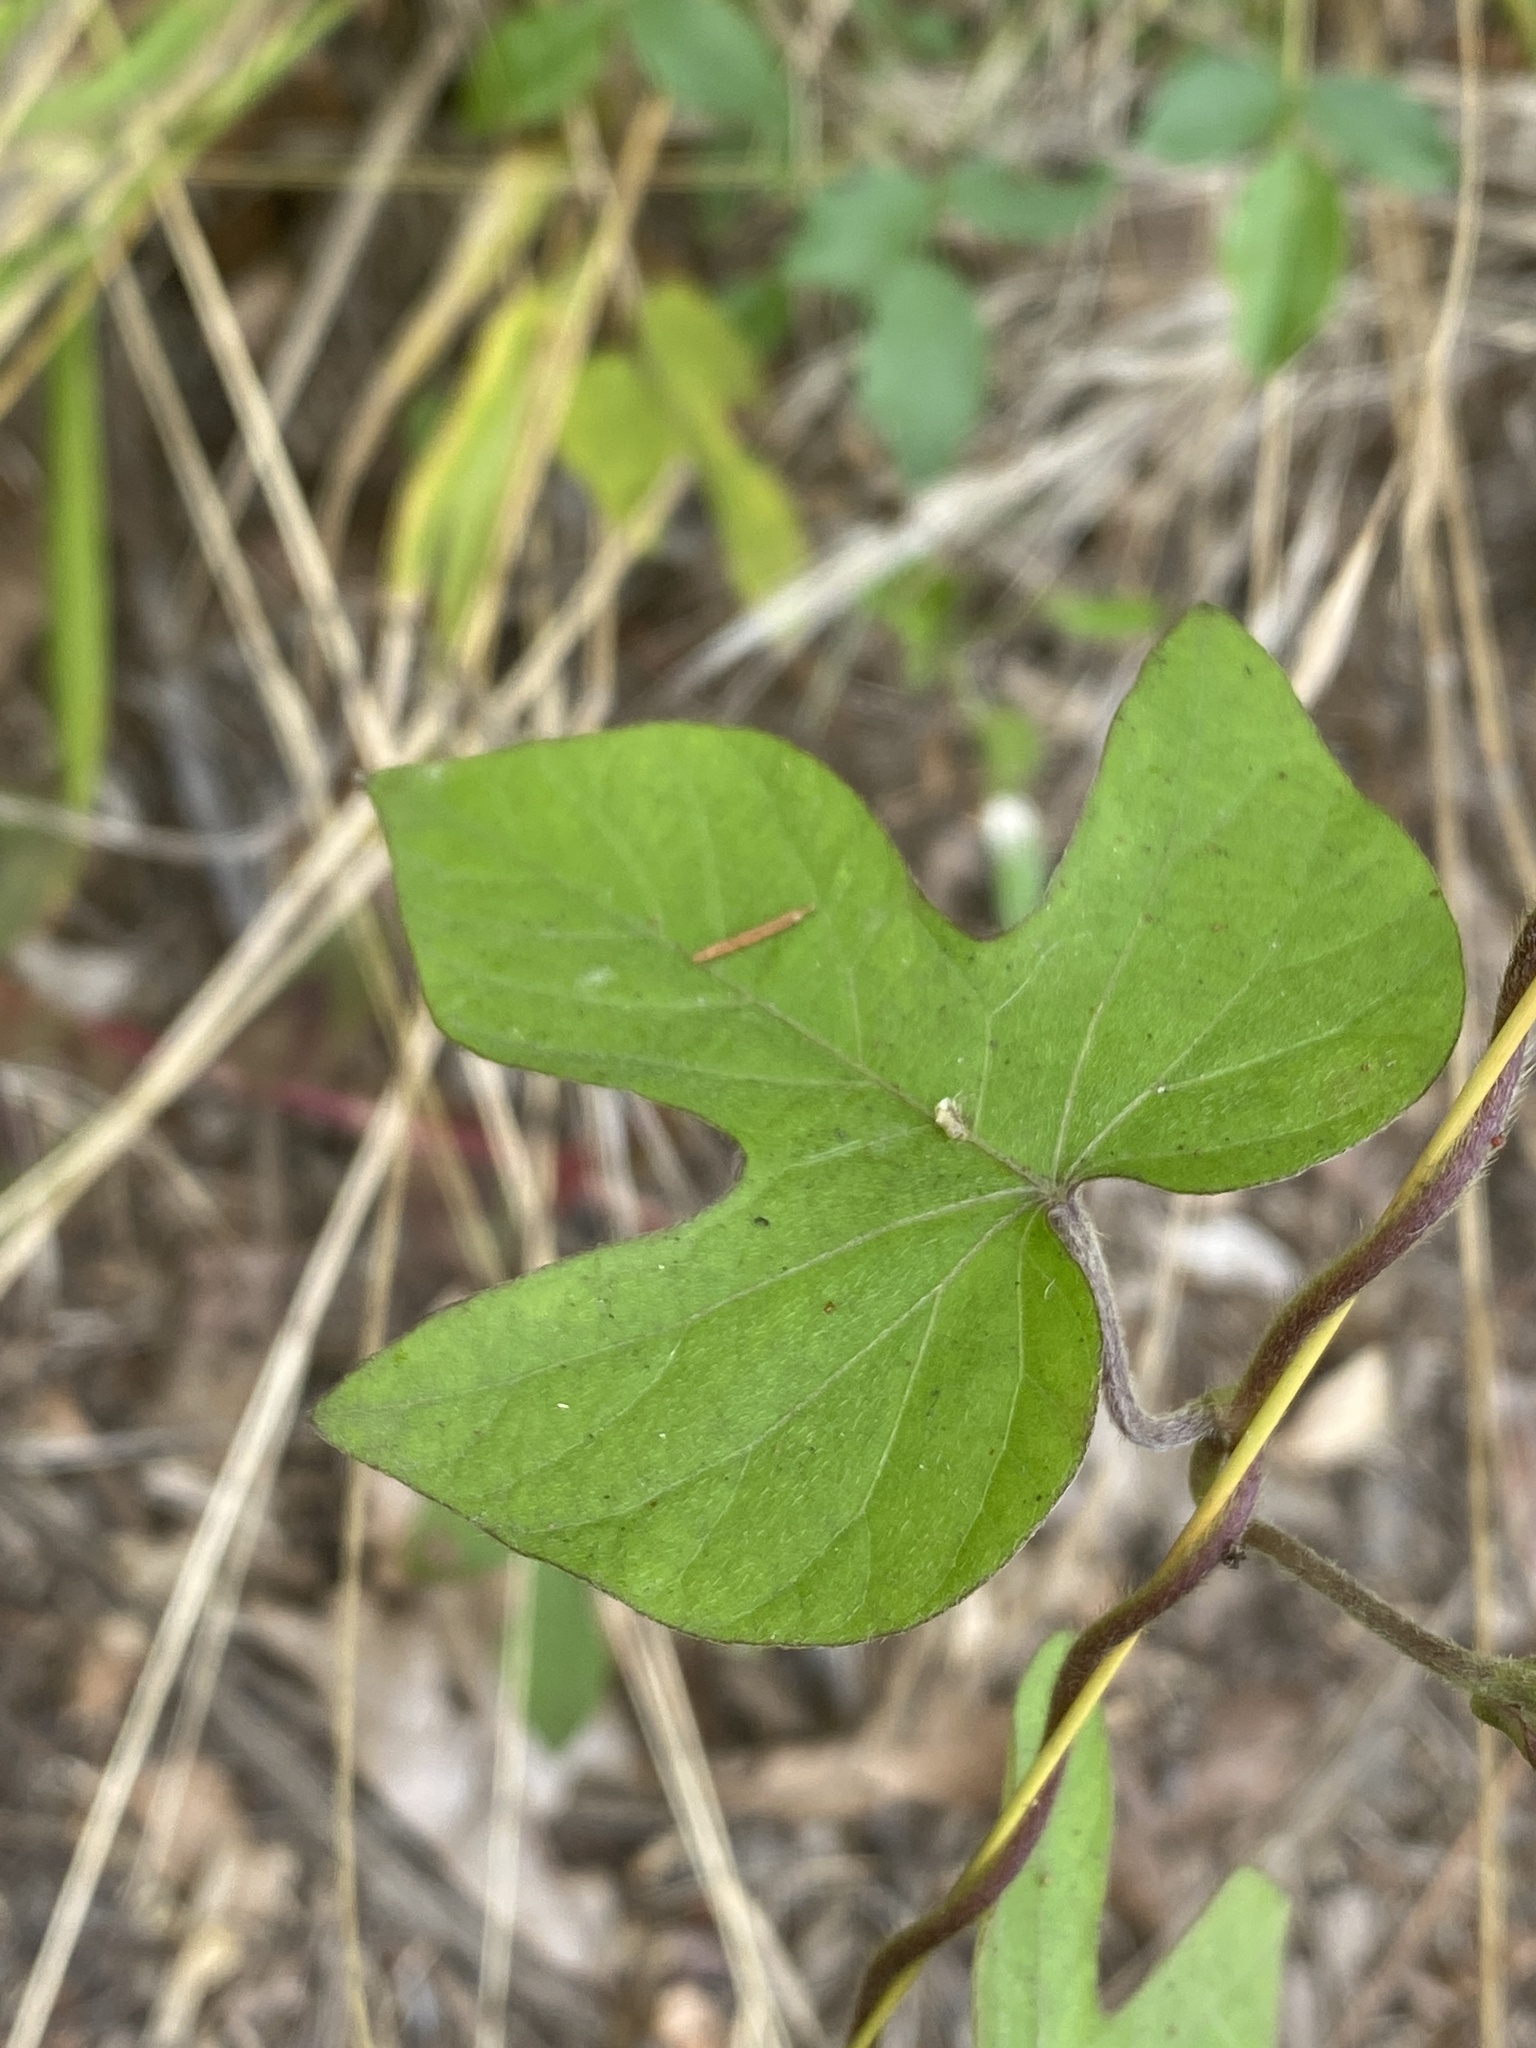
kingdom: Plantae
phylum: Tracheophyta
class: Magnoliopsida
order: Solanales
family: Convolvulaceae
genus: Ipomoea
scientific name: Ipomoea indica
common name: Blue dawnflower
